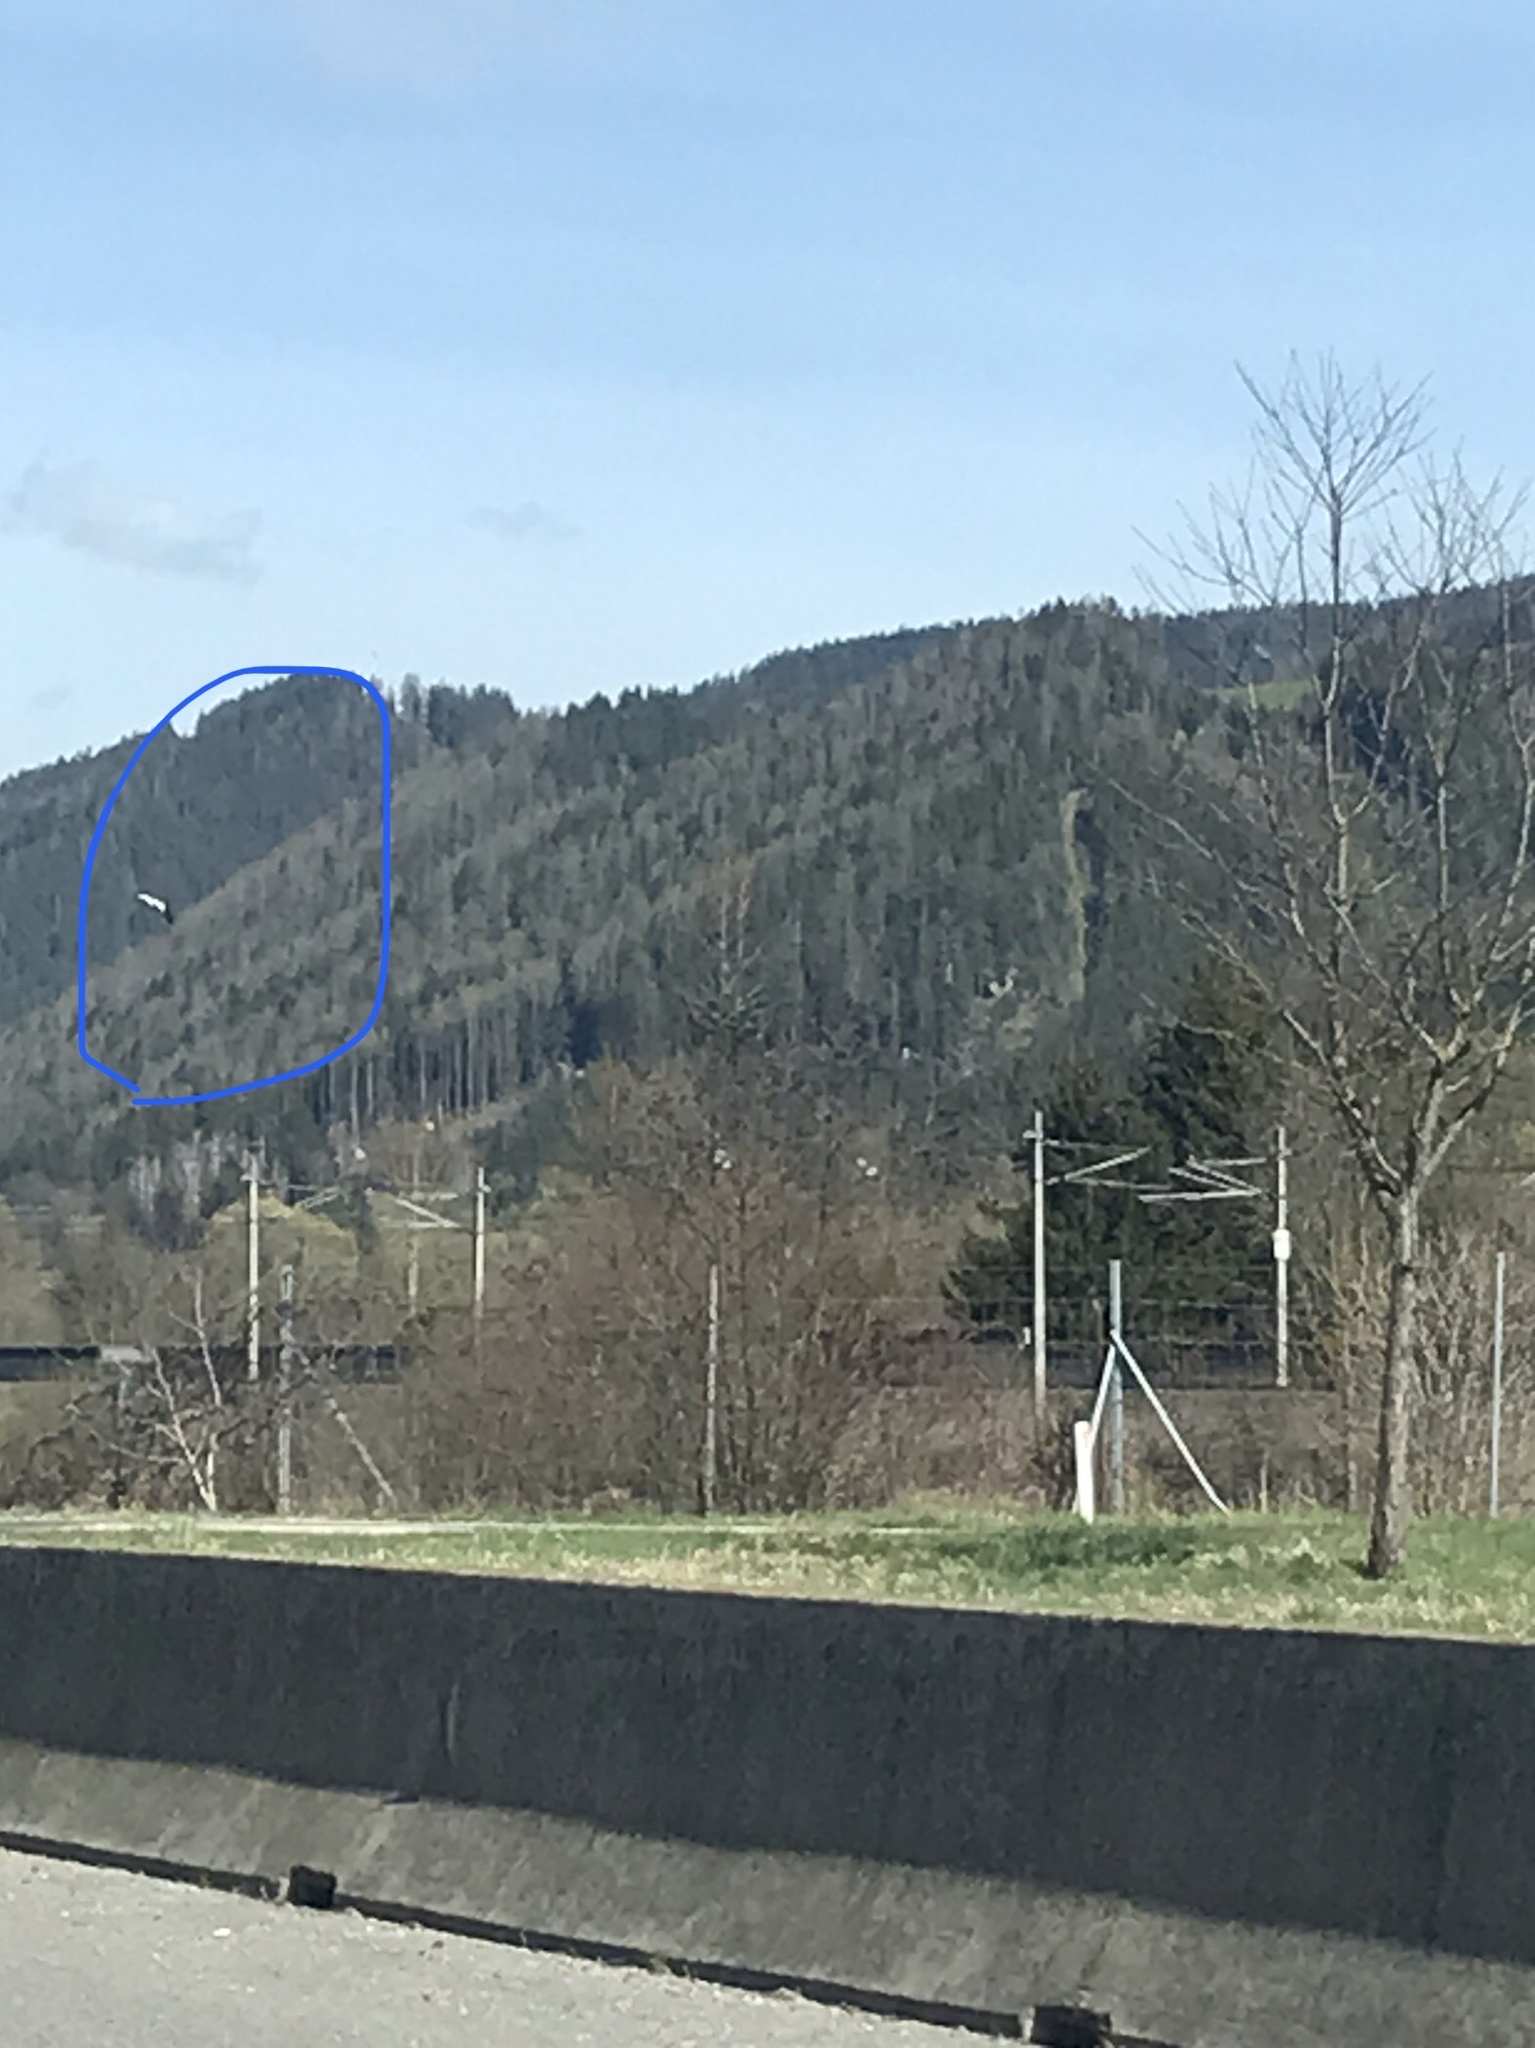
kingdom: Animalia
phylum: Chordata
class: Aves
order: Ciconiiformes
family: Ciconiidae
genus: Ciconia
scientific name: Ciconia ciconia
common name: White stork
